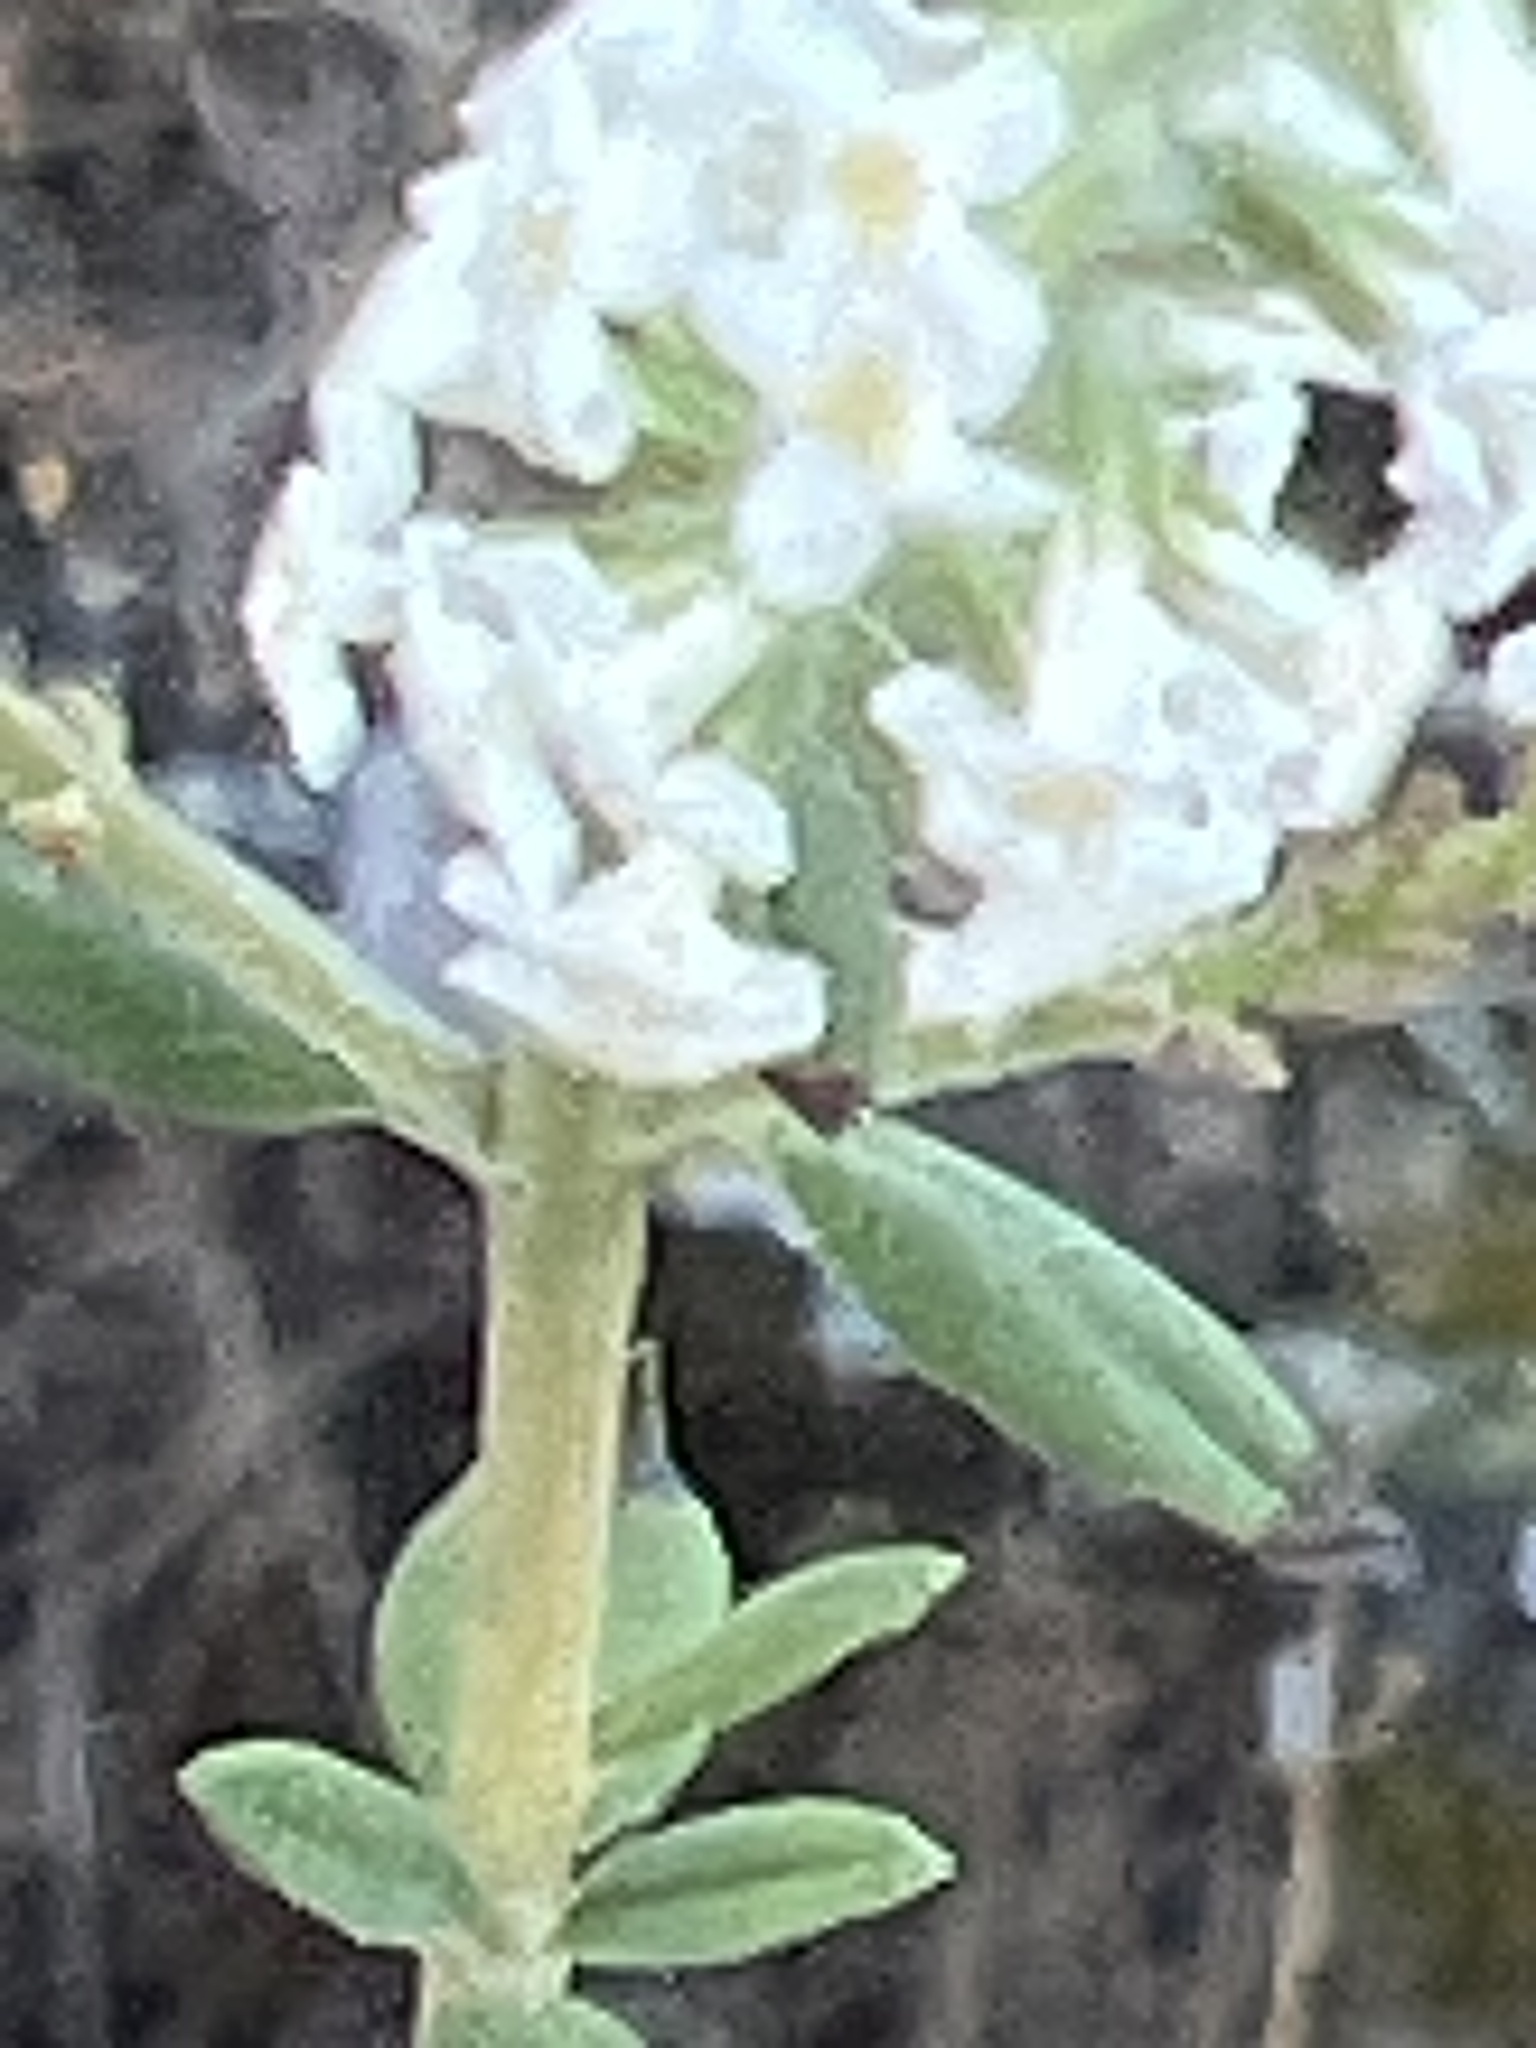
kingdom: Plantae
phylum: Tracheophyta
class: Magnoliopsida
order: Lamiales
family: Verbenaceae
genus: Aloysia
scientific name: Aloysia gratissima
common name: Common bee-brush
